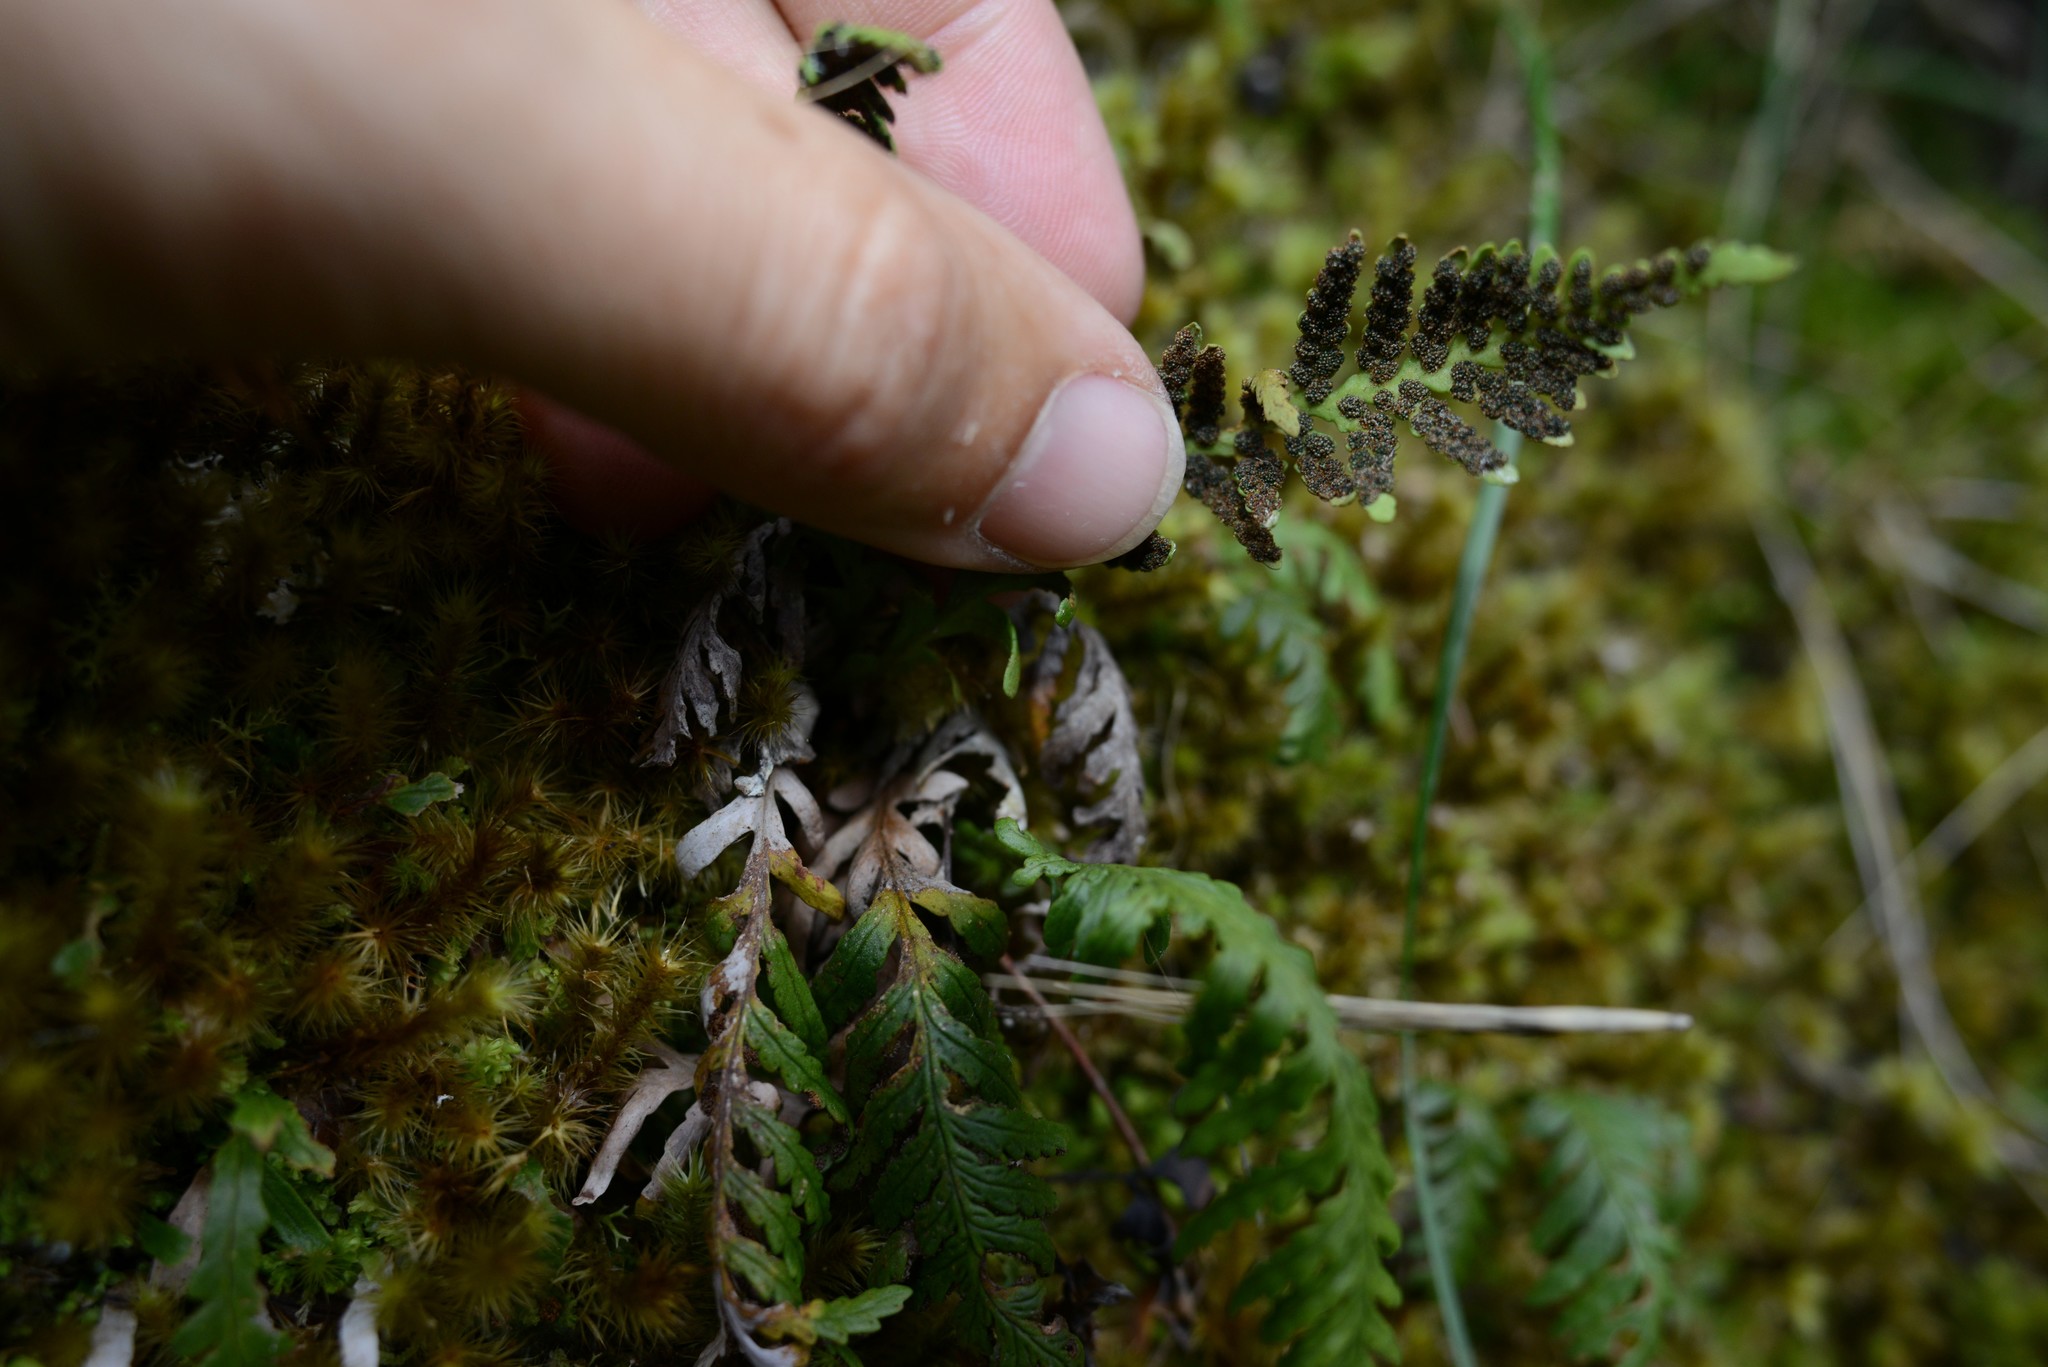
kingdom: Plantae
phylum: Tracheophyta
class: Polypodiopsida
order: Polypodiales
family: Polypodiaceae
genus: Notogrammitis
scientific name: Notogrammitis heterophylla
